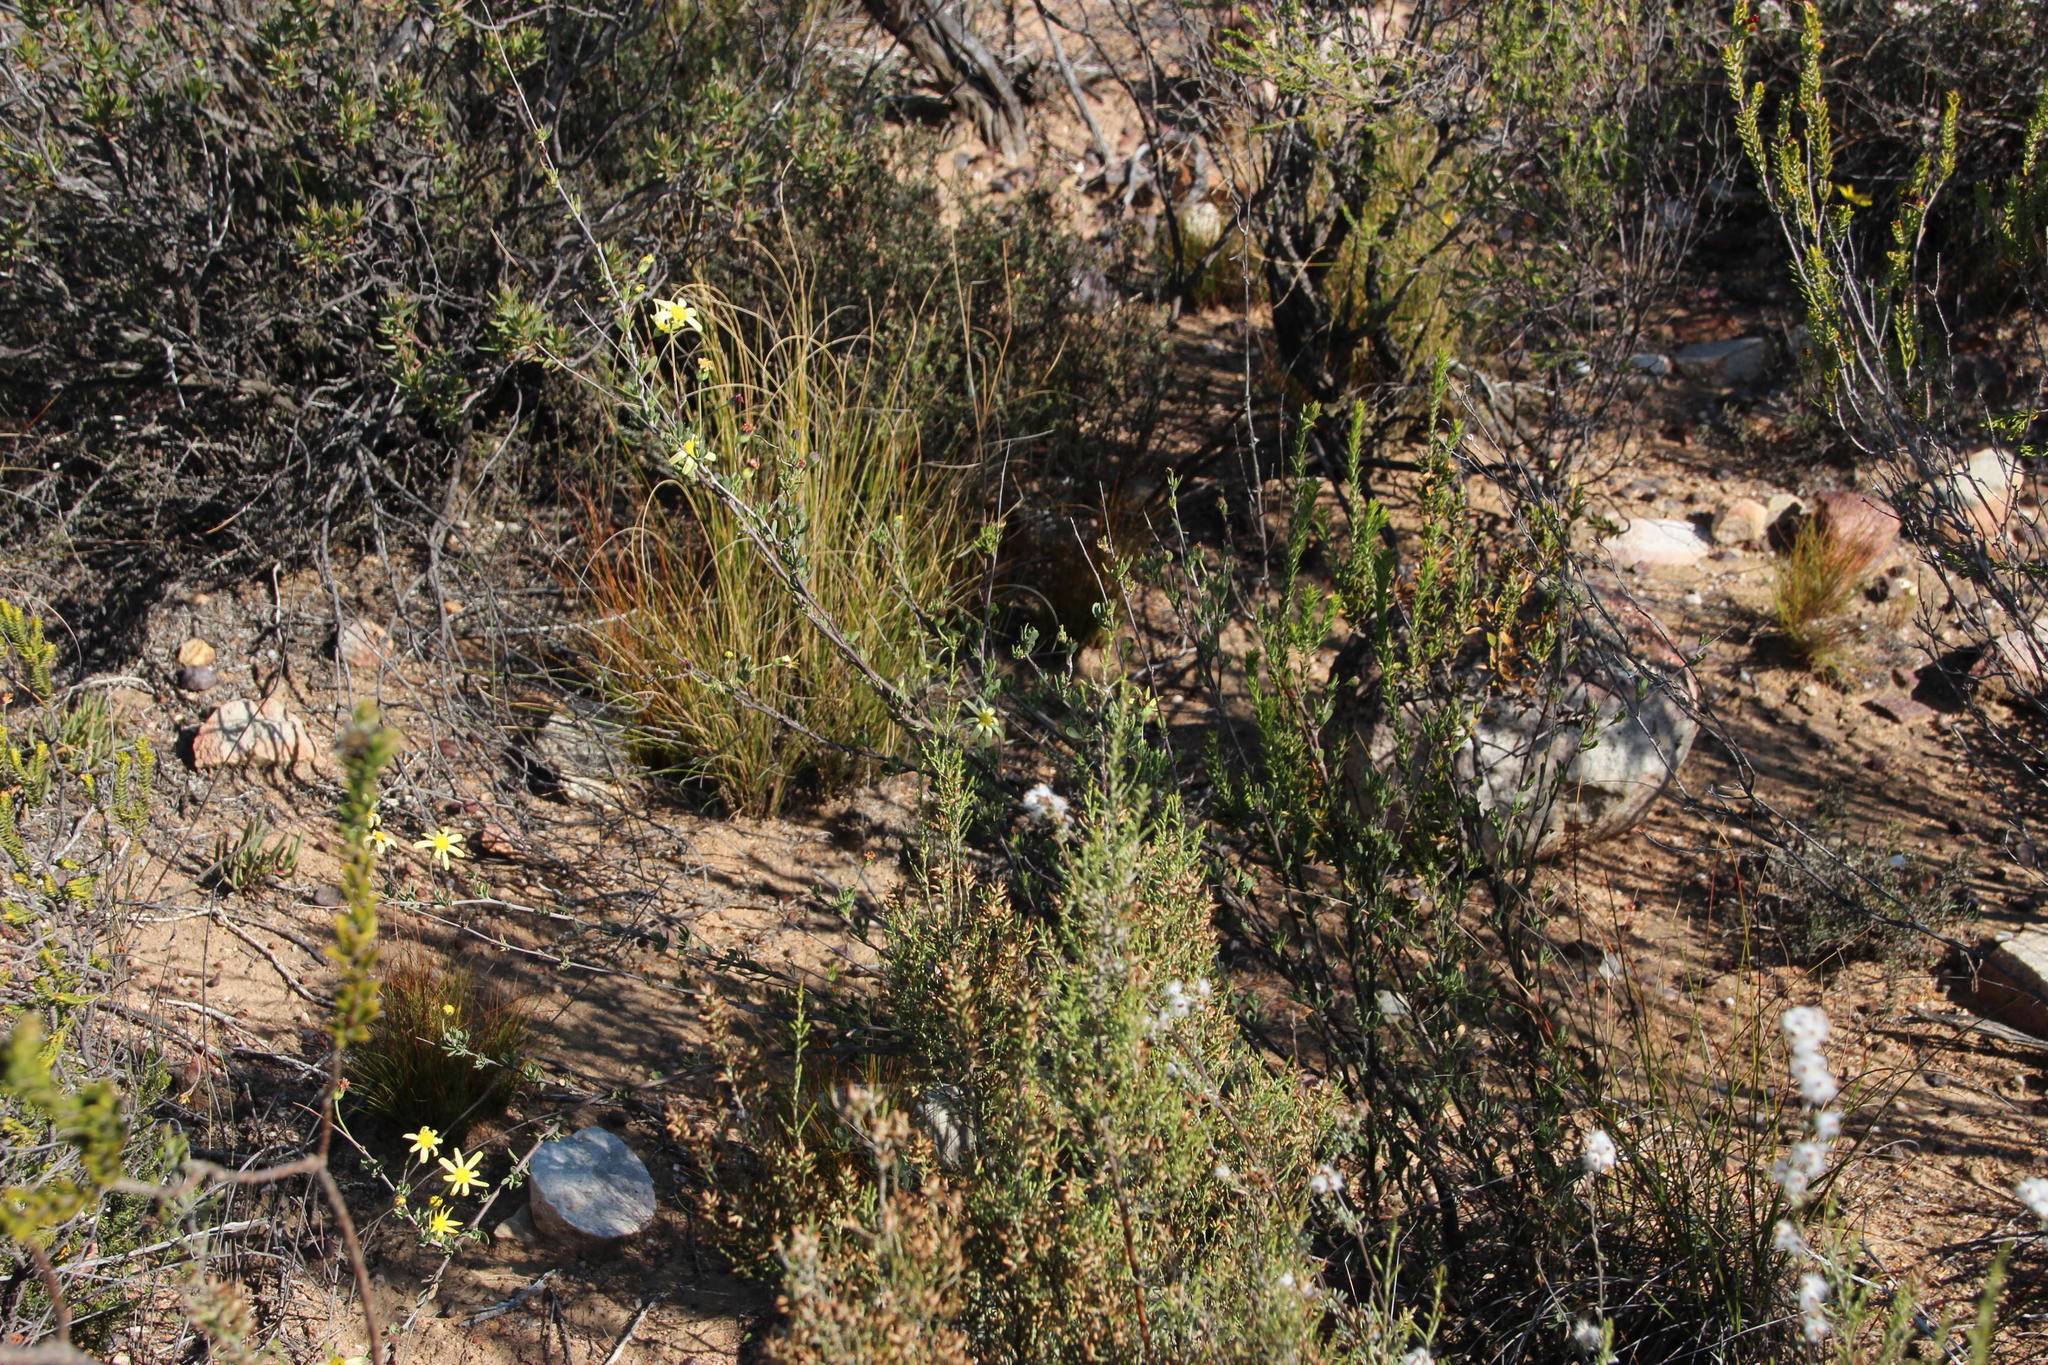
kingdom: Plantae
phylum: Tracheophyta
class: Magnoliopsida
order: Asterales
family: Asteraceae
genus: Othonna
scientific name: Othonna ramulosa
